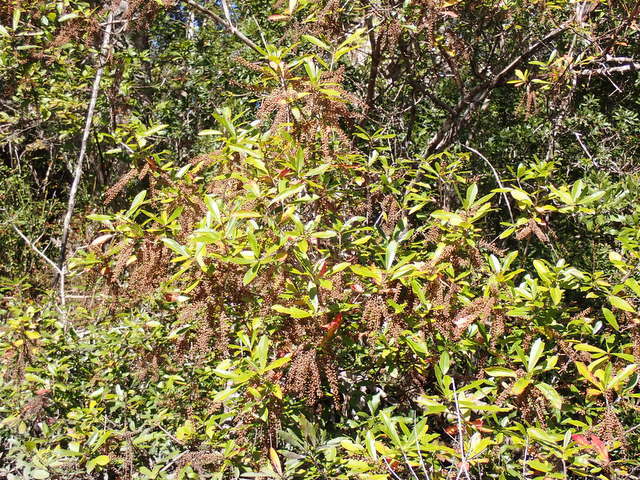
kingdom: Plantae
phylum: Tracheophyta
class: Magnoliopsida
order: Ericales
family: Cyrillaceae
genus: Cyrilla
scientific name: Cyrilla racemiflora
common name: Black titi
